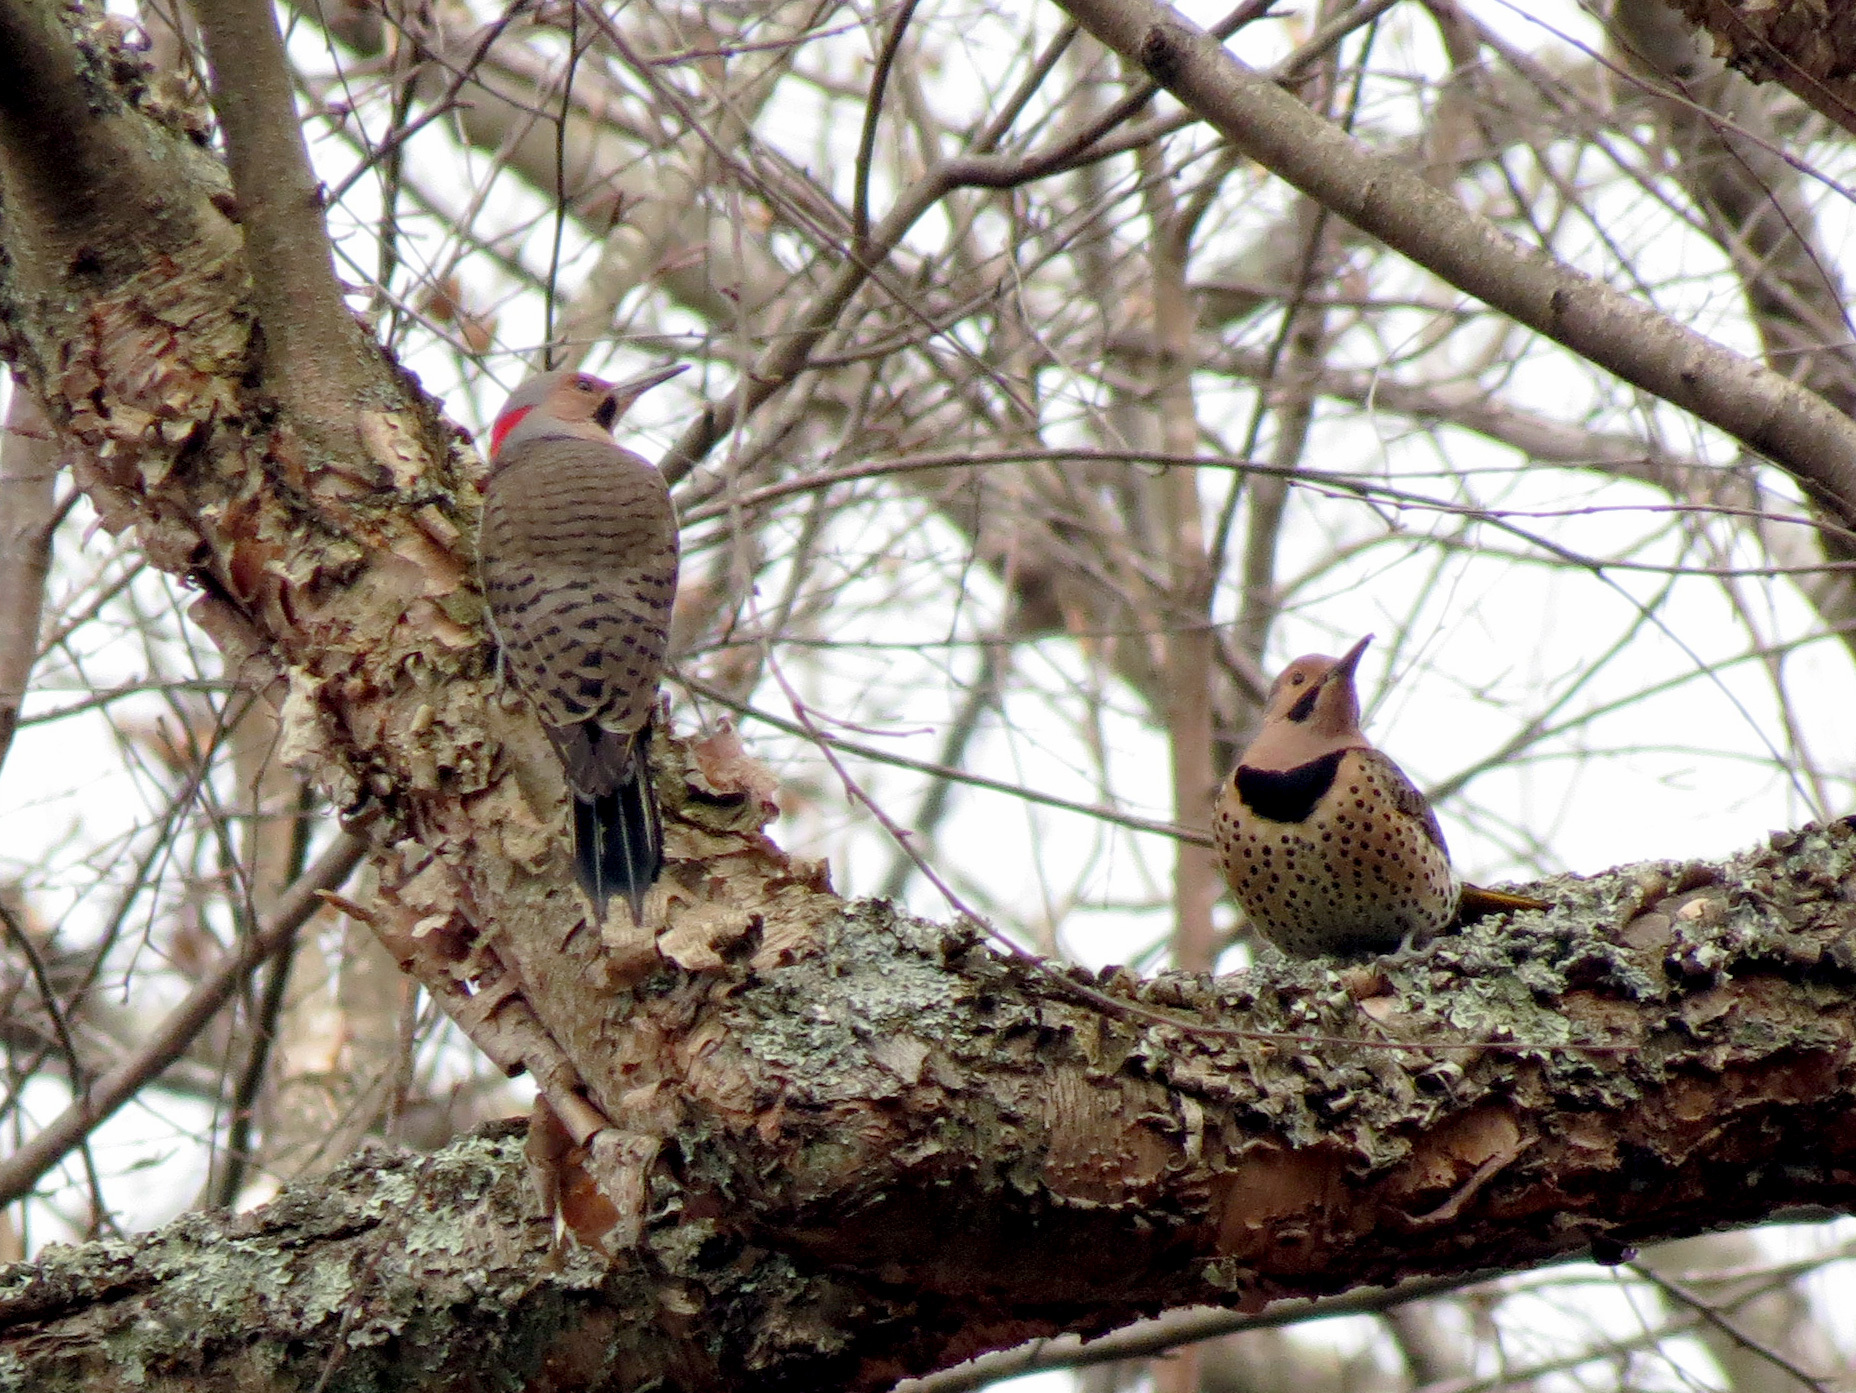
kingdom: Animalia
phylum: Chordata
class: Aves
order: Piciformes
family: Picidae
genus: Colaptes
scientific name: Colaptes auratus
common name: Northern flicker
